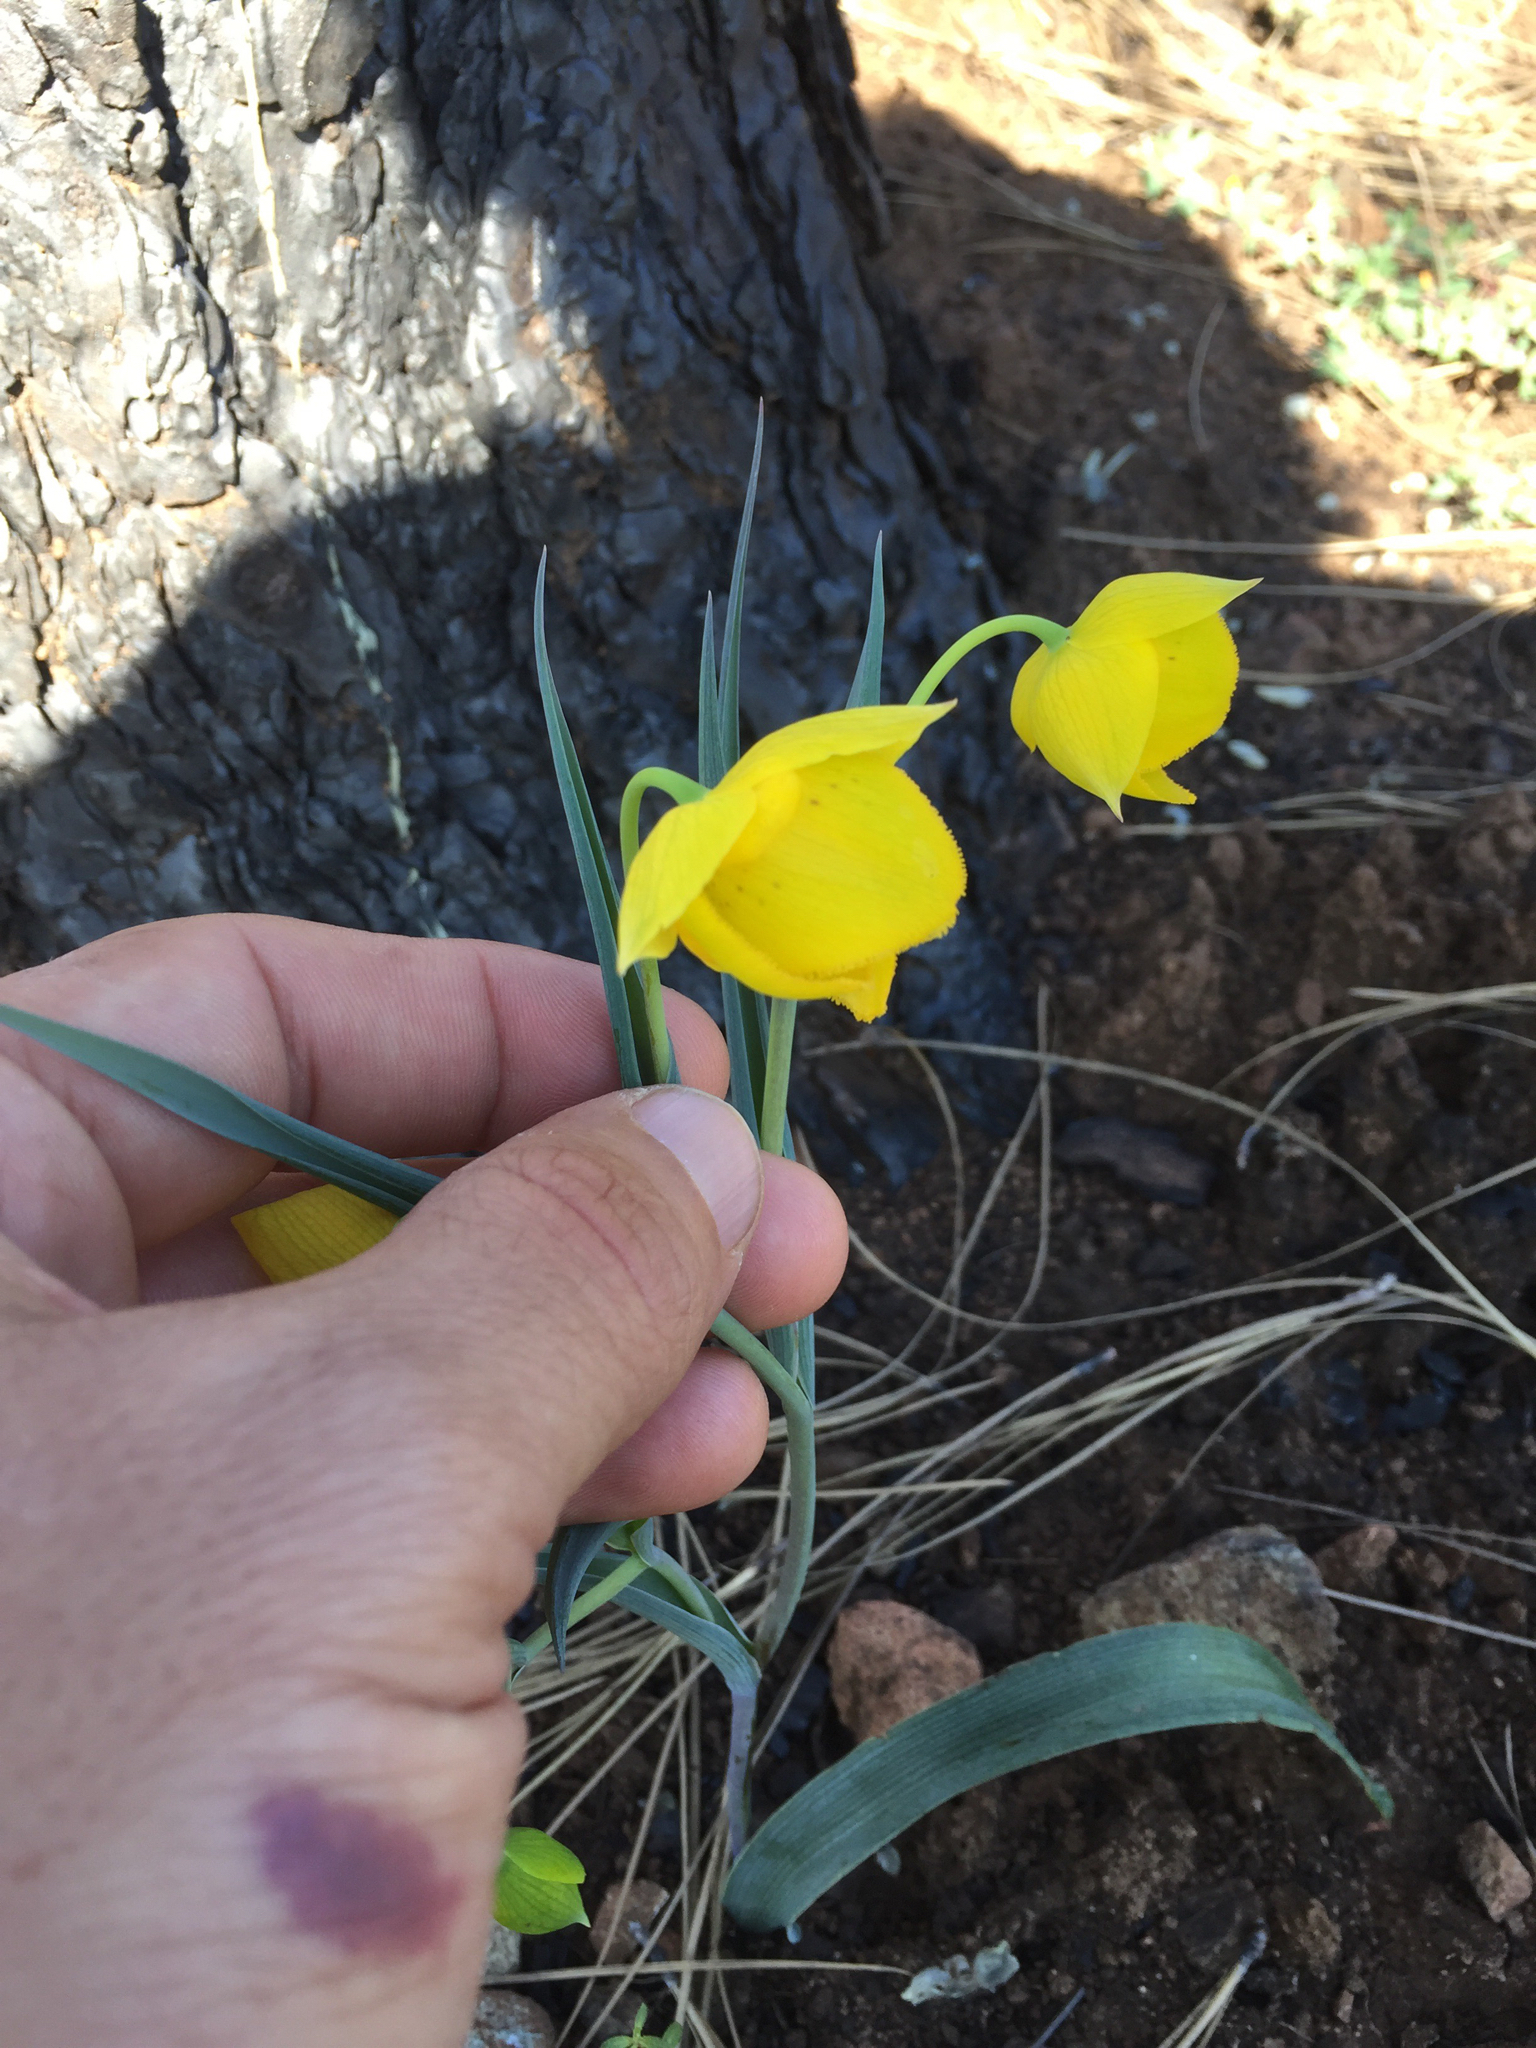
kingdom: Plantae
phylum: Tracheophyta
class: Liliopsida
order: Liliales
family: Liliaceae
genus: Calochortus
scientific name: Calochortus amabilis
